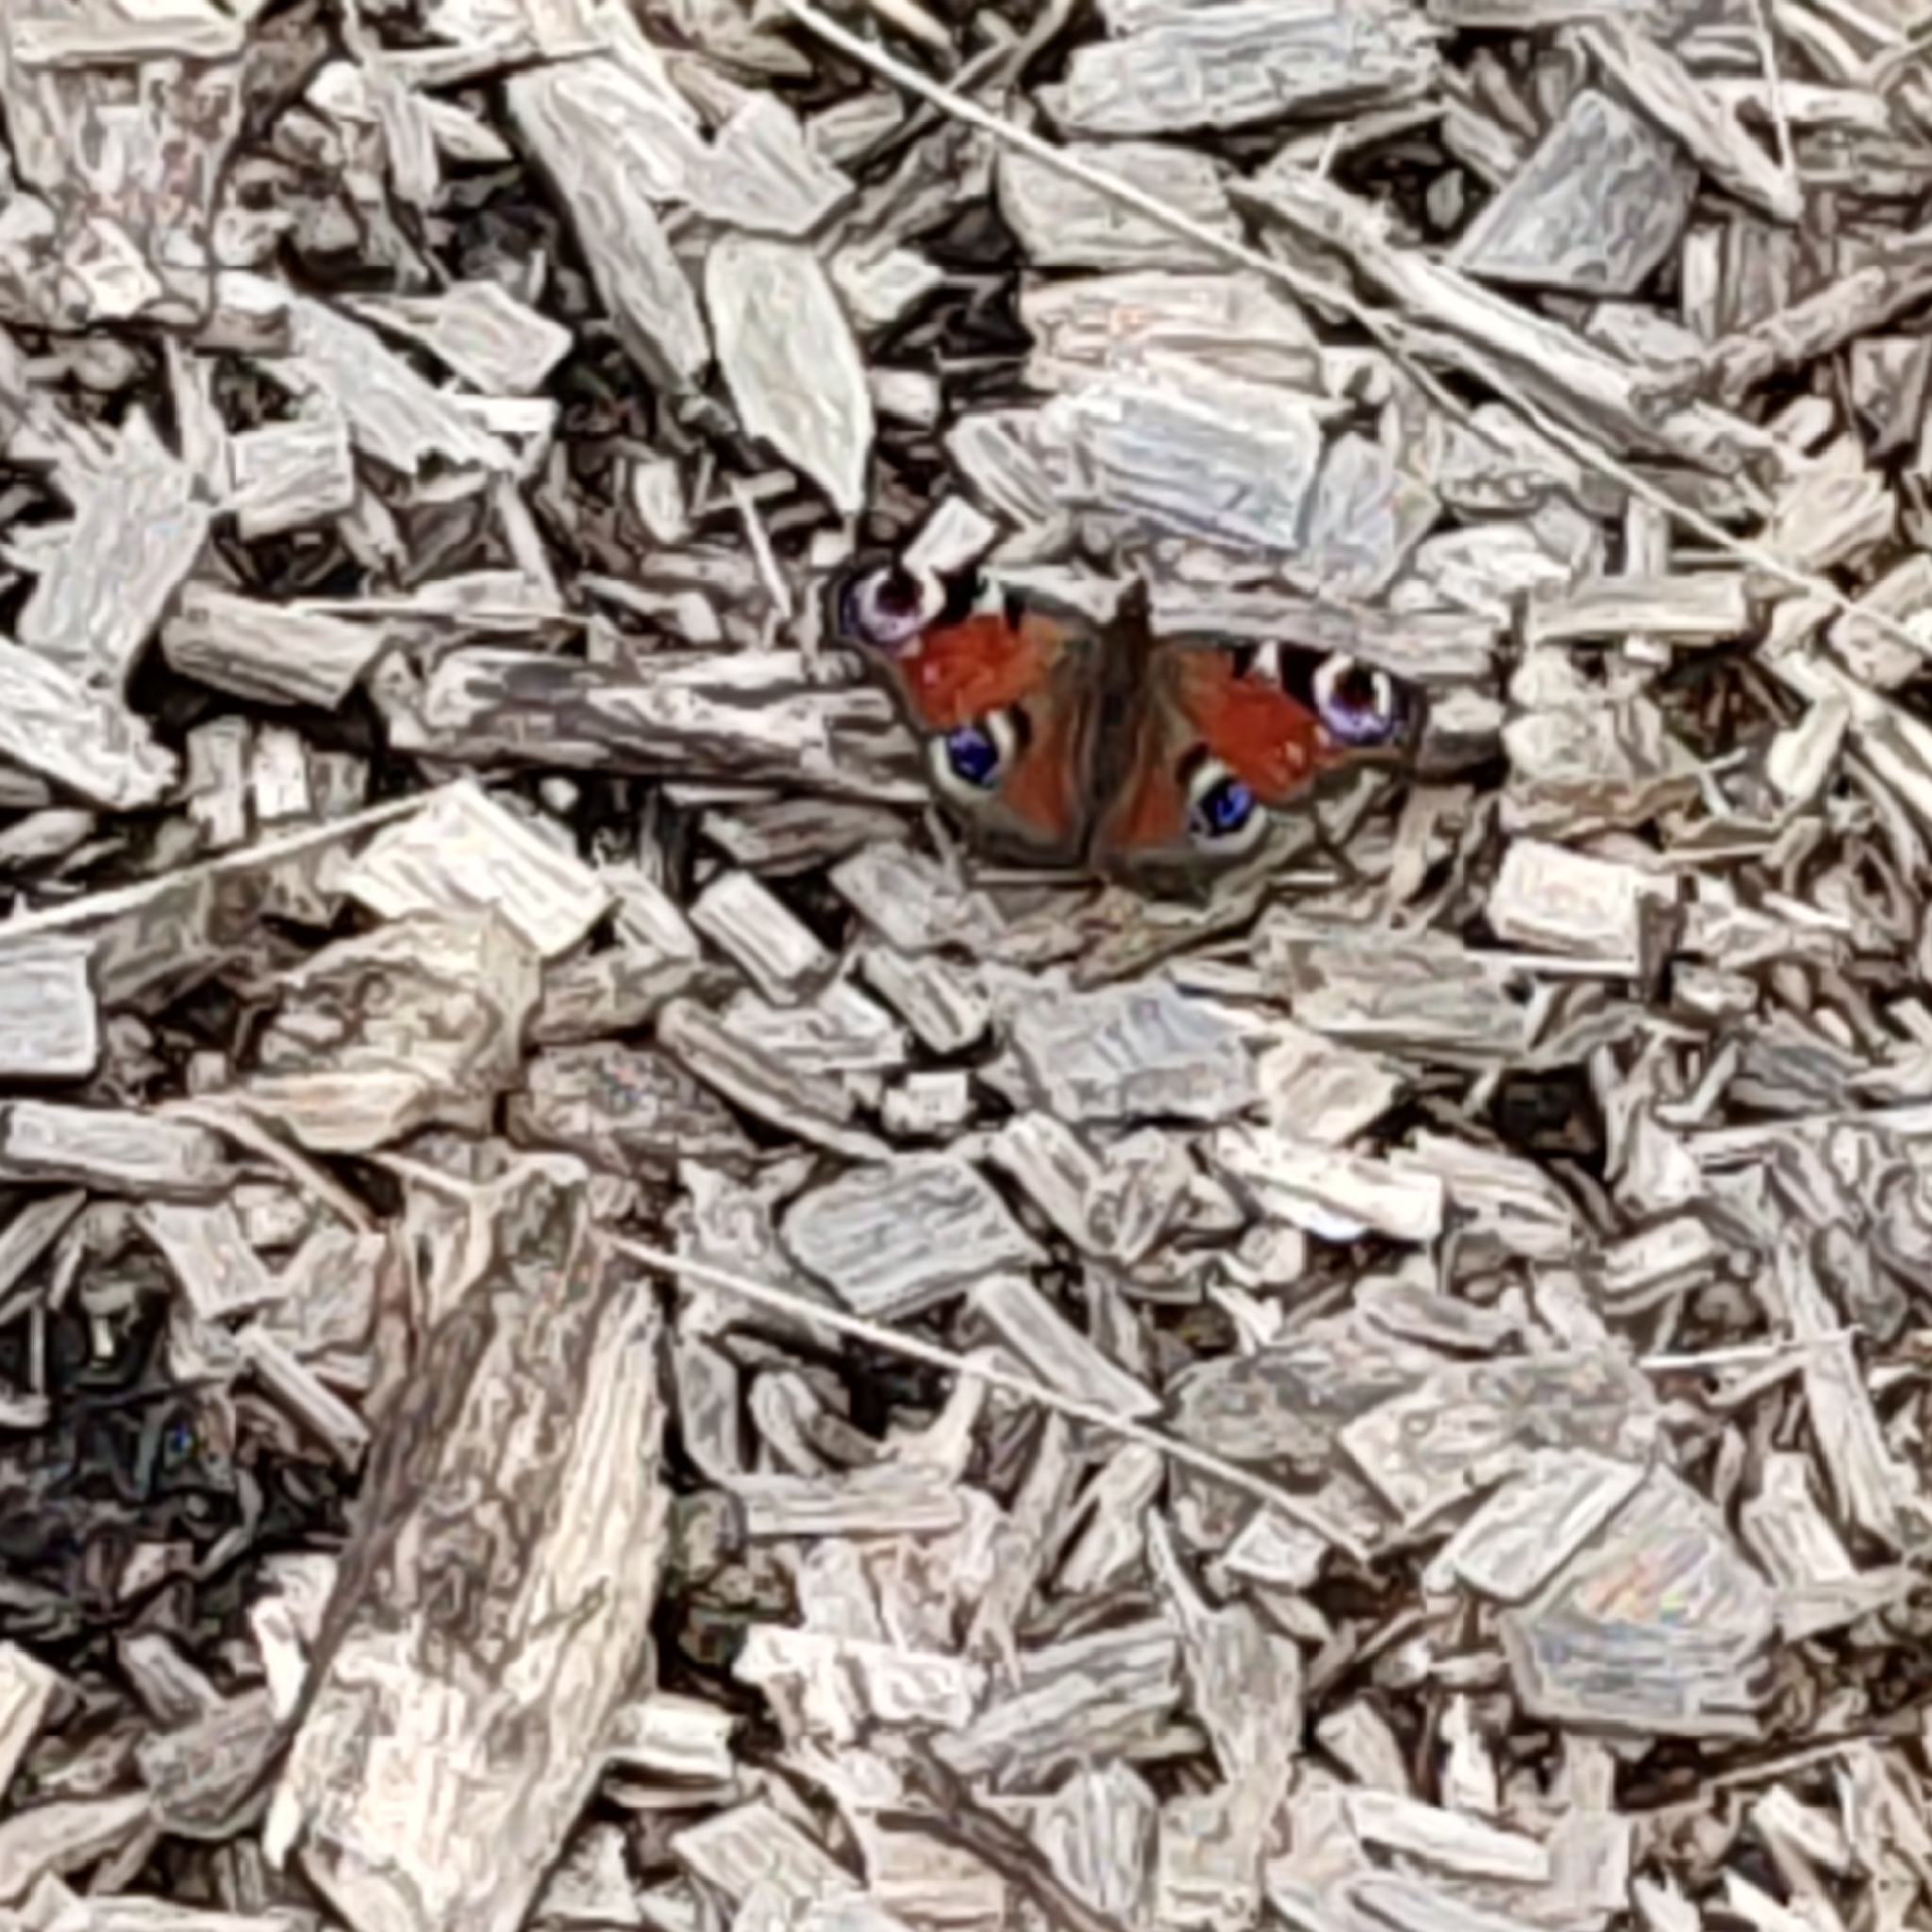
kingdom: Animalia
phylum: Arthropoda
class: Insecta
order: Lepidoptera
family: Nymphalidae
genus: Aglais
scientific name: Aglais io
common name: Peacock
